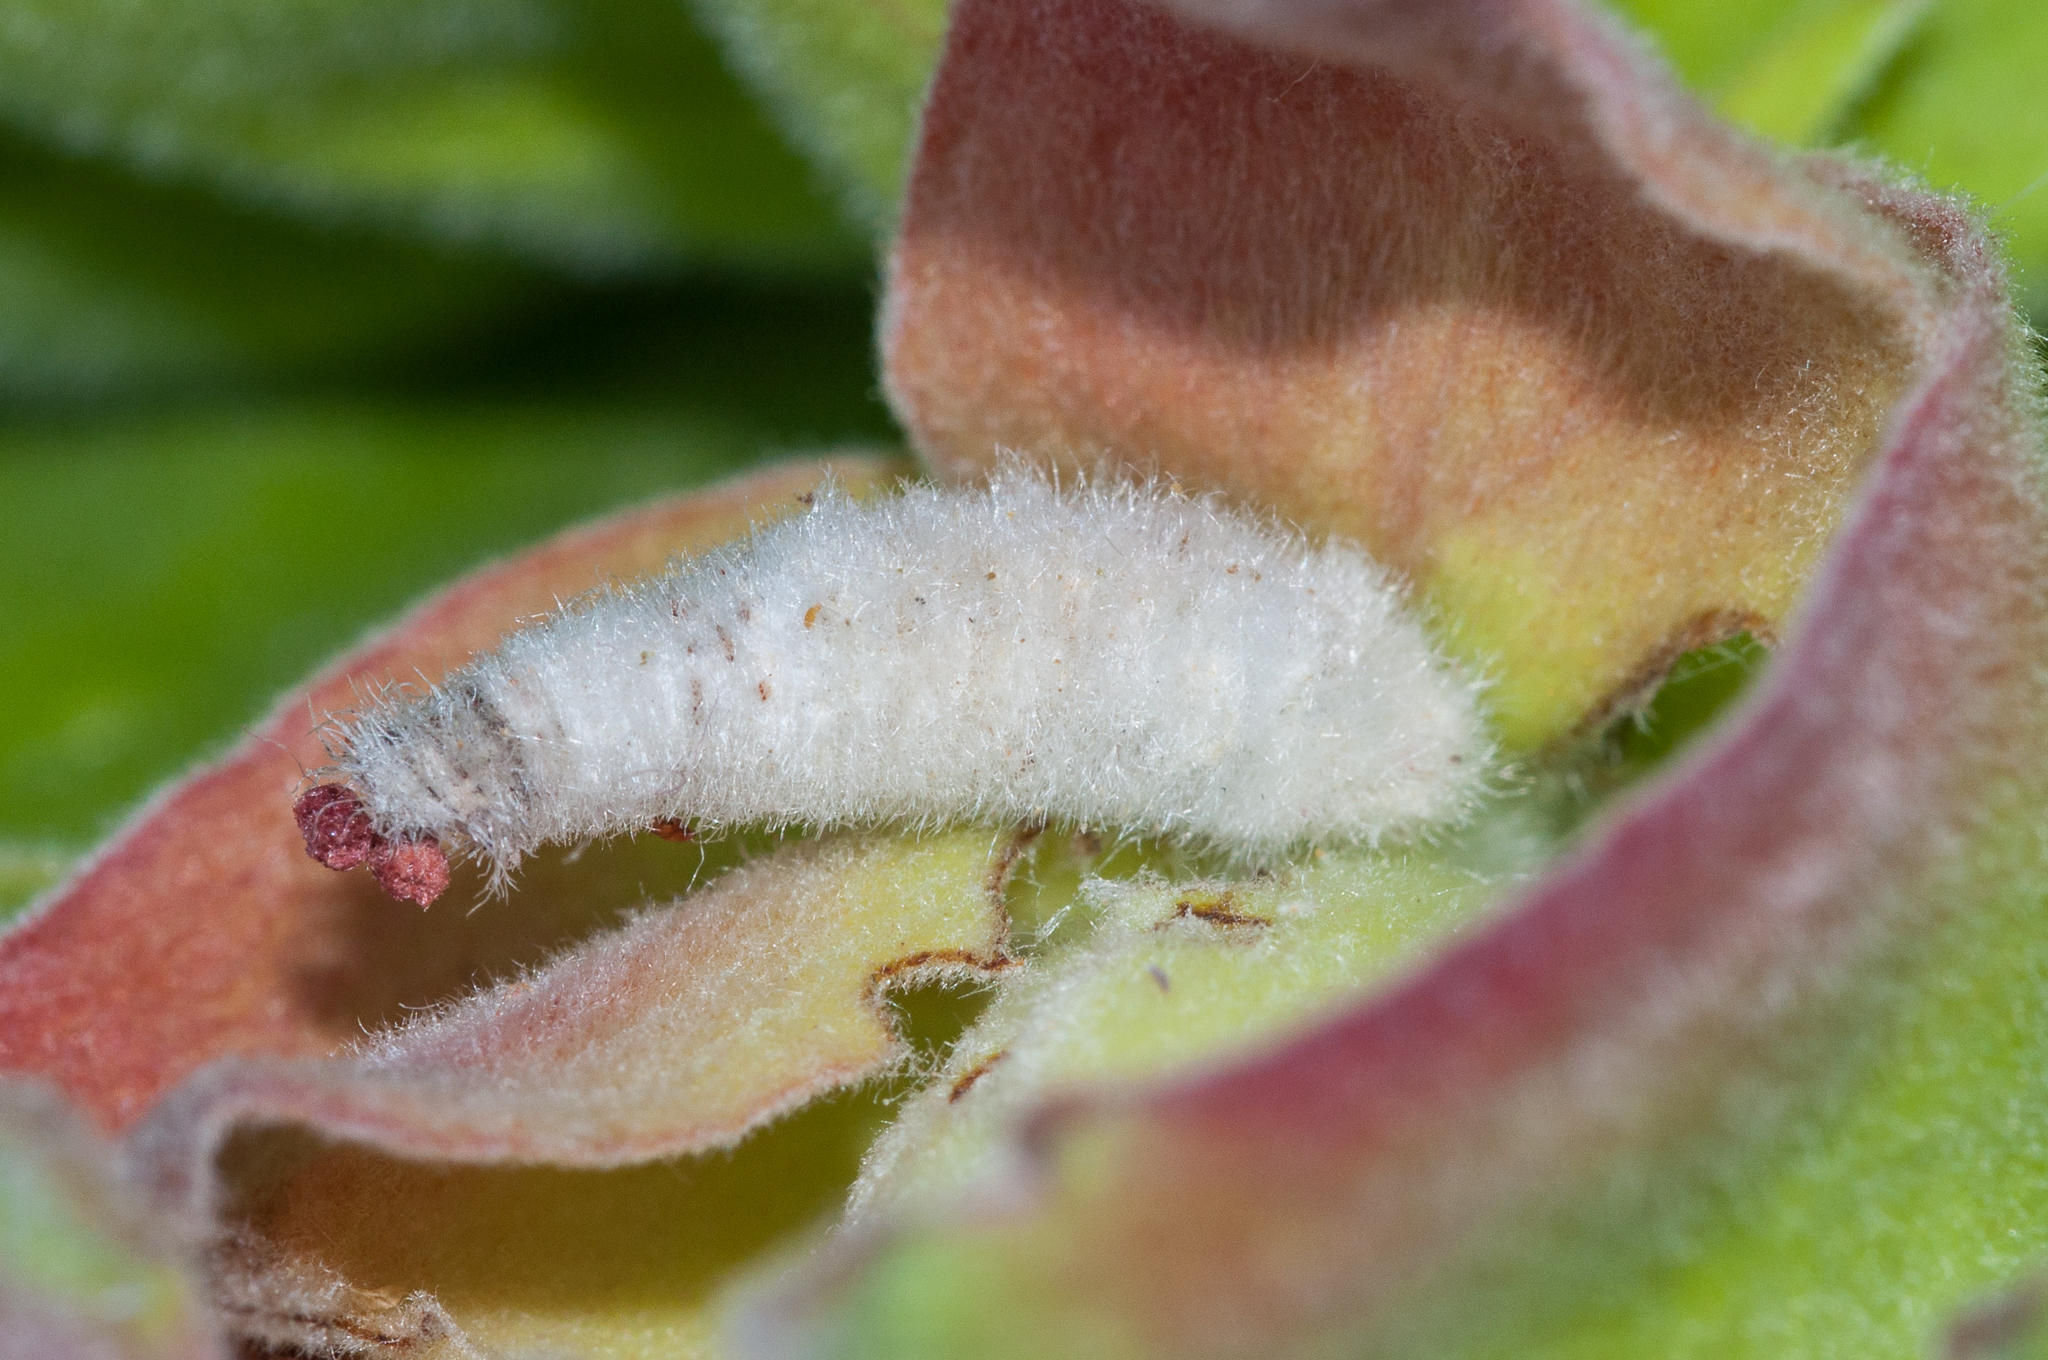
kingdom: Animalia
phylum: Arthropoda
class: Insecta
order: Lepidoptera
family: Psychidae
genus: Typhonia
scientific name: Typhonia petrodes
